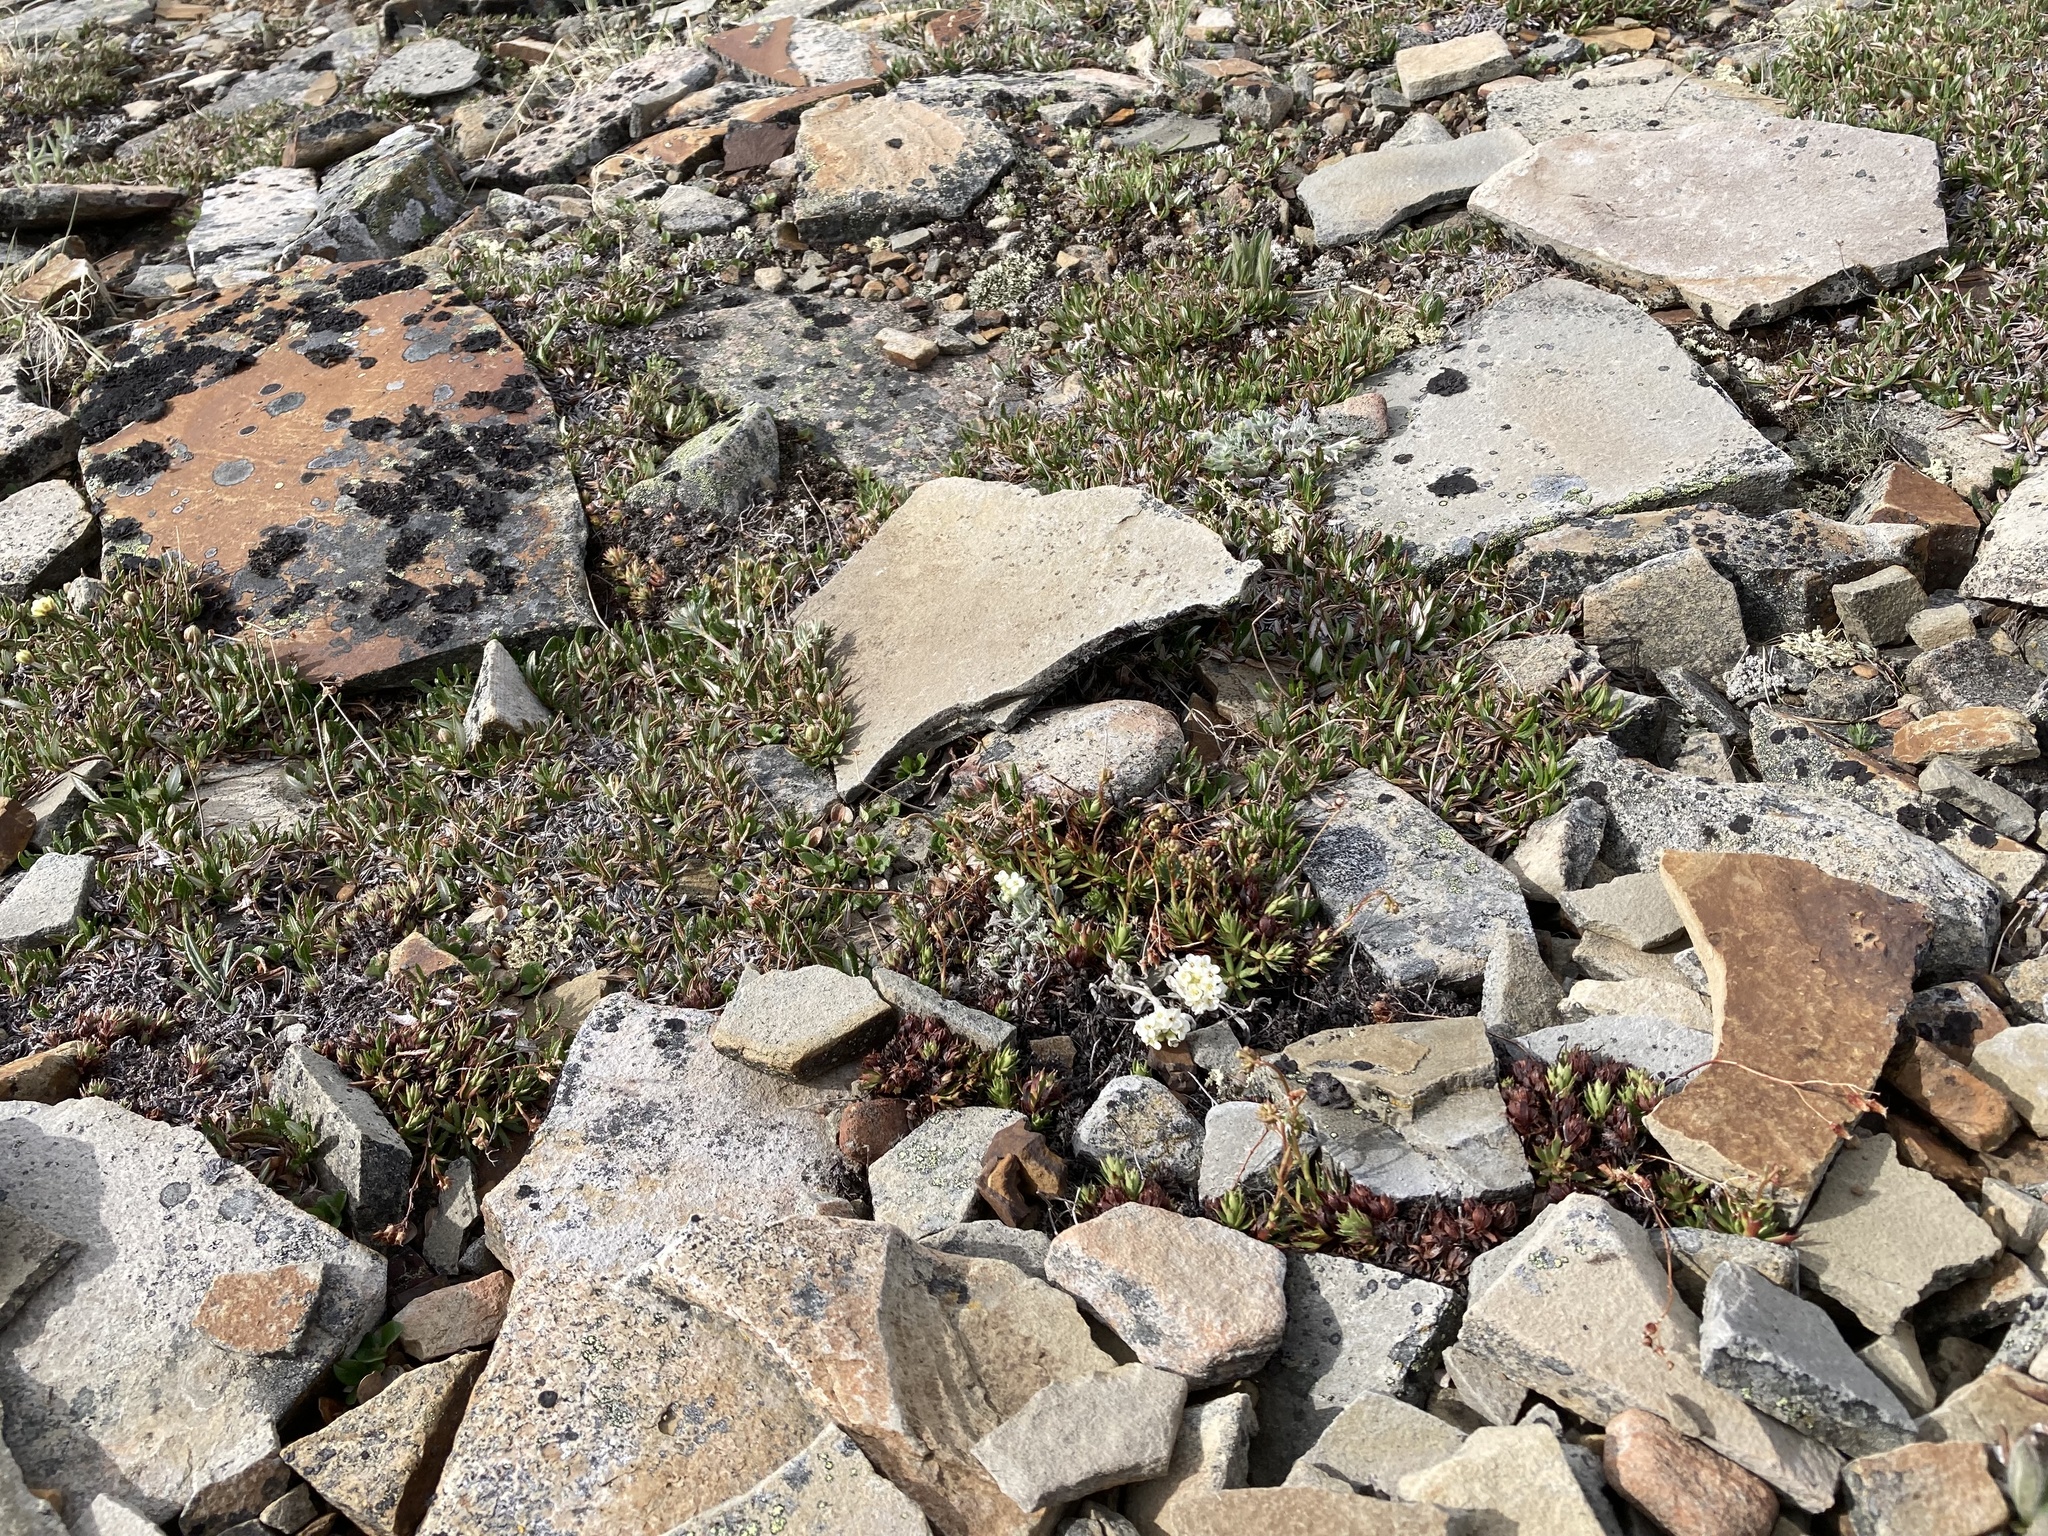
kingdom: Plantae
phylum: Tracheophyta
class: Magnoliopsida
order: Brassicales
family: Brassicaceae
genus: Smelowskia
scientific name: Smelowskia americana
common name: American false candytuft
